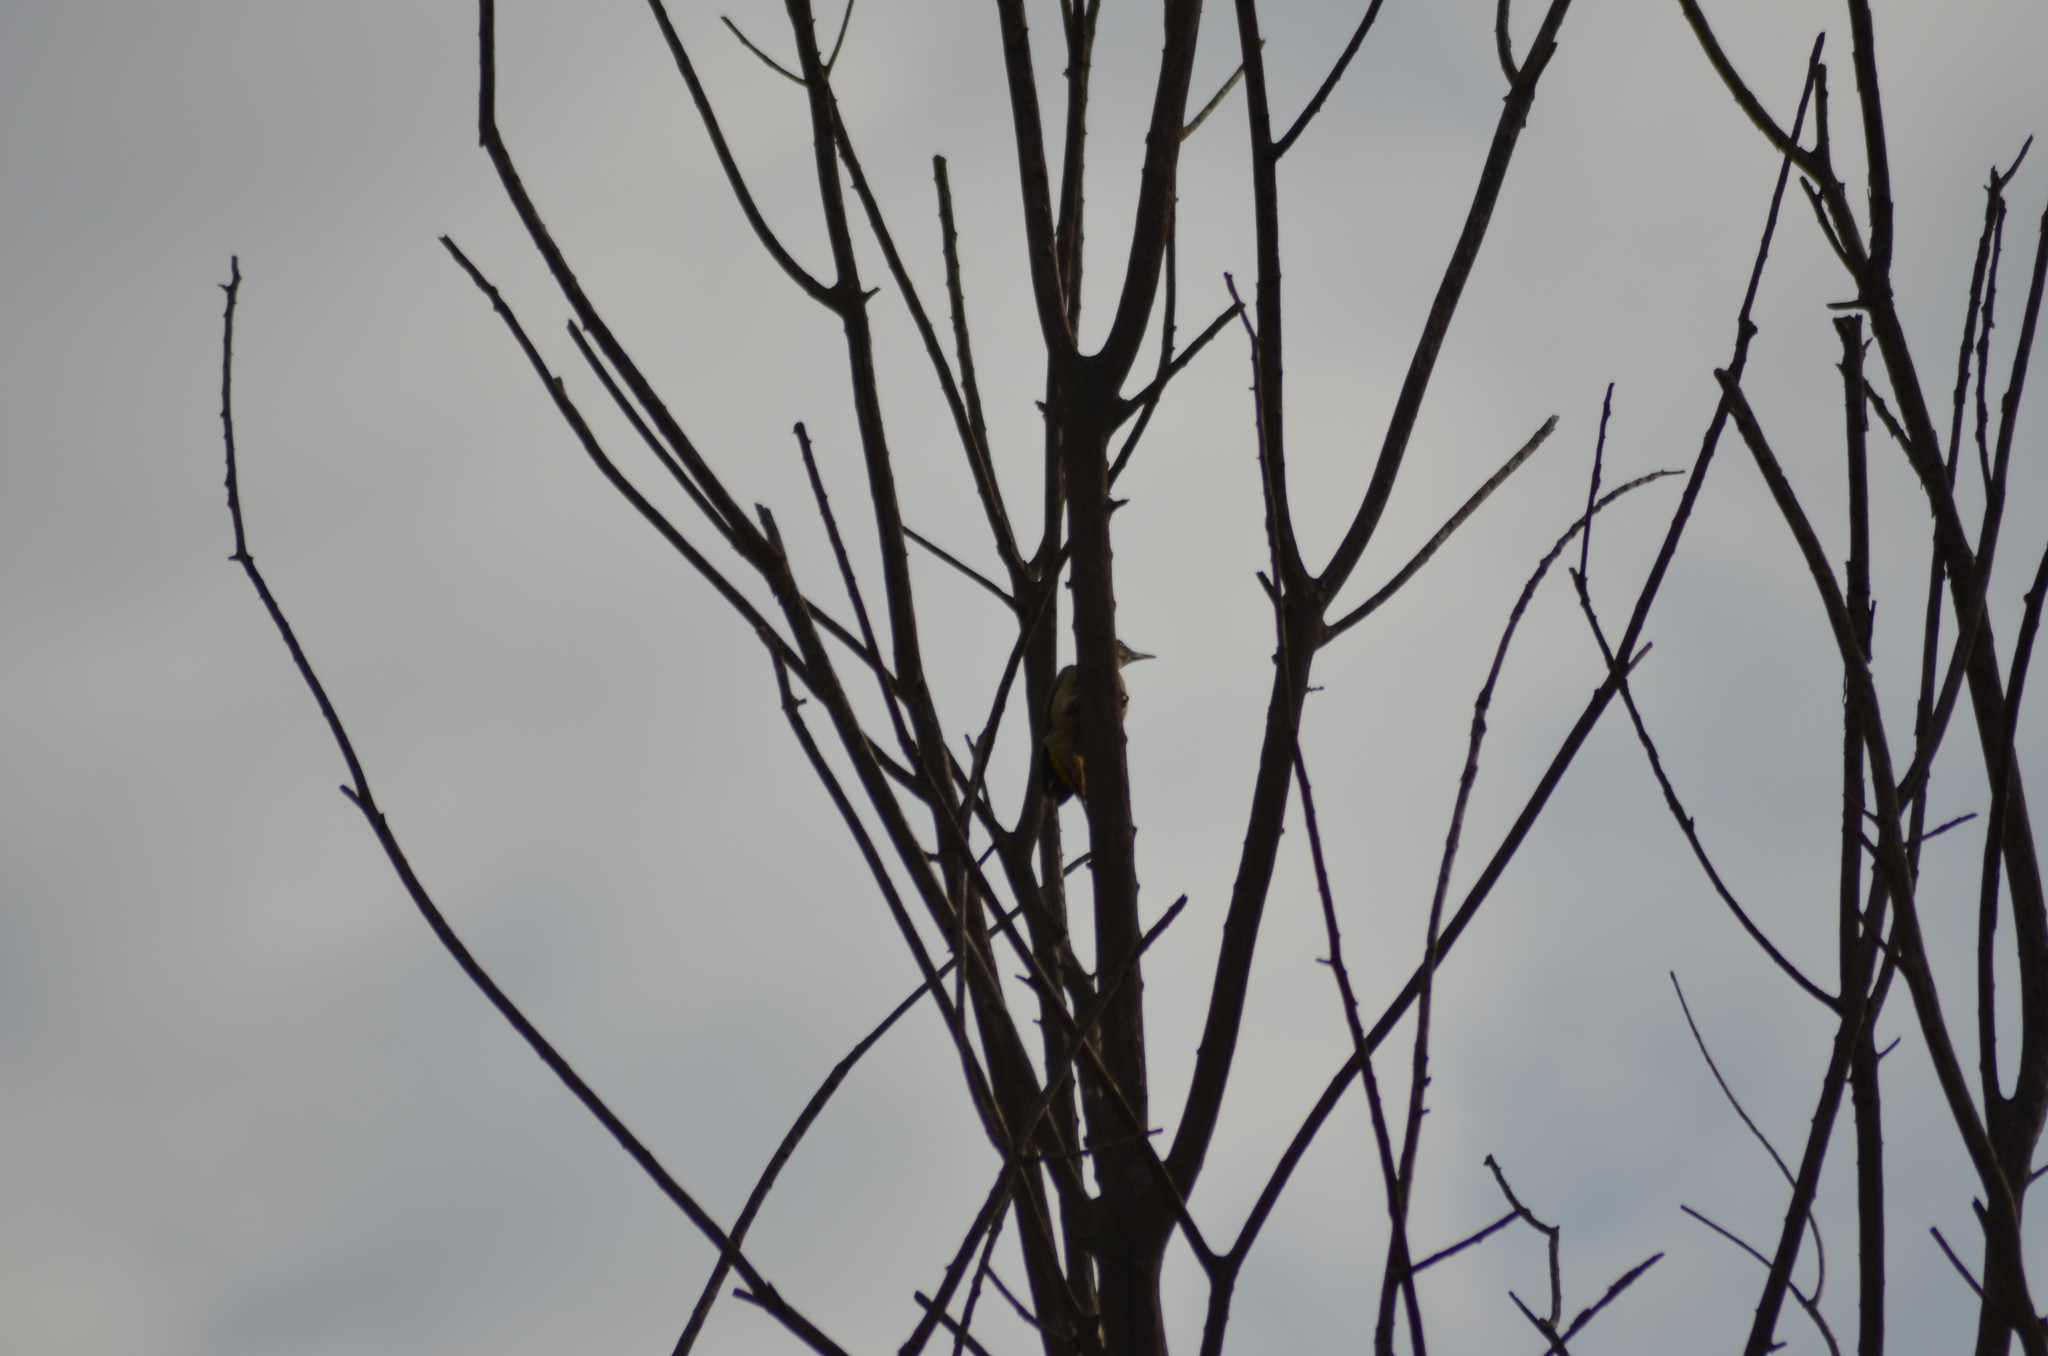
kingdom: Animalia
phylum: Chordata
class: Aves
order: Piciformes
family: Picidae
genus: Picus
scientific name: Picus sharpei
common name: Iberian green woodpecker
